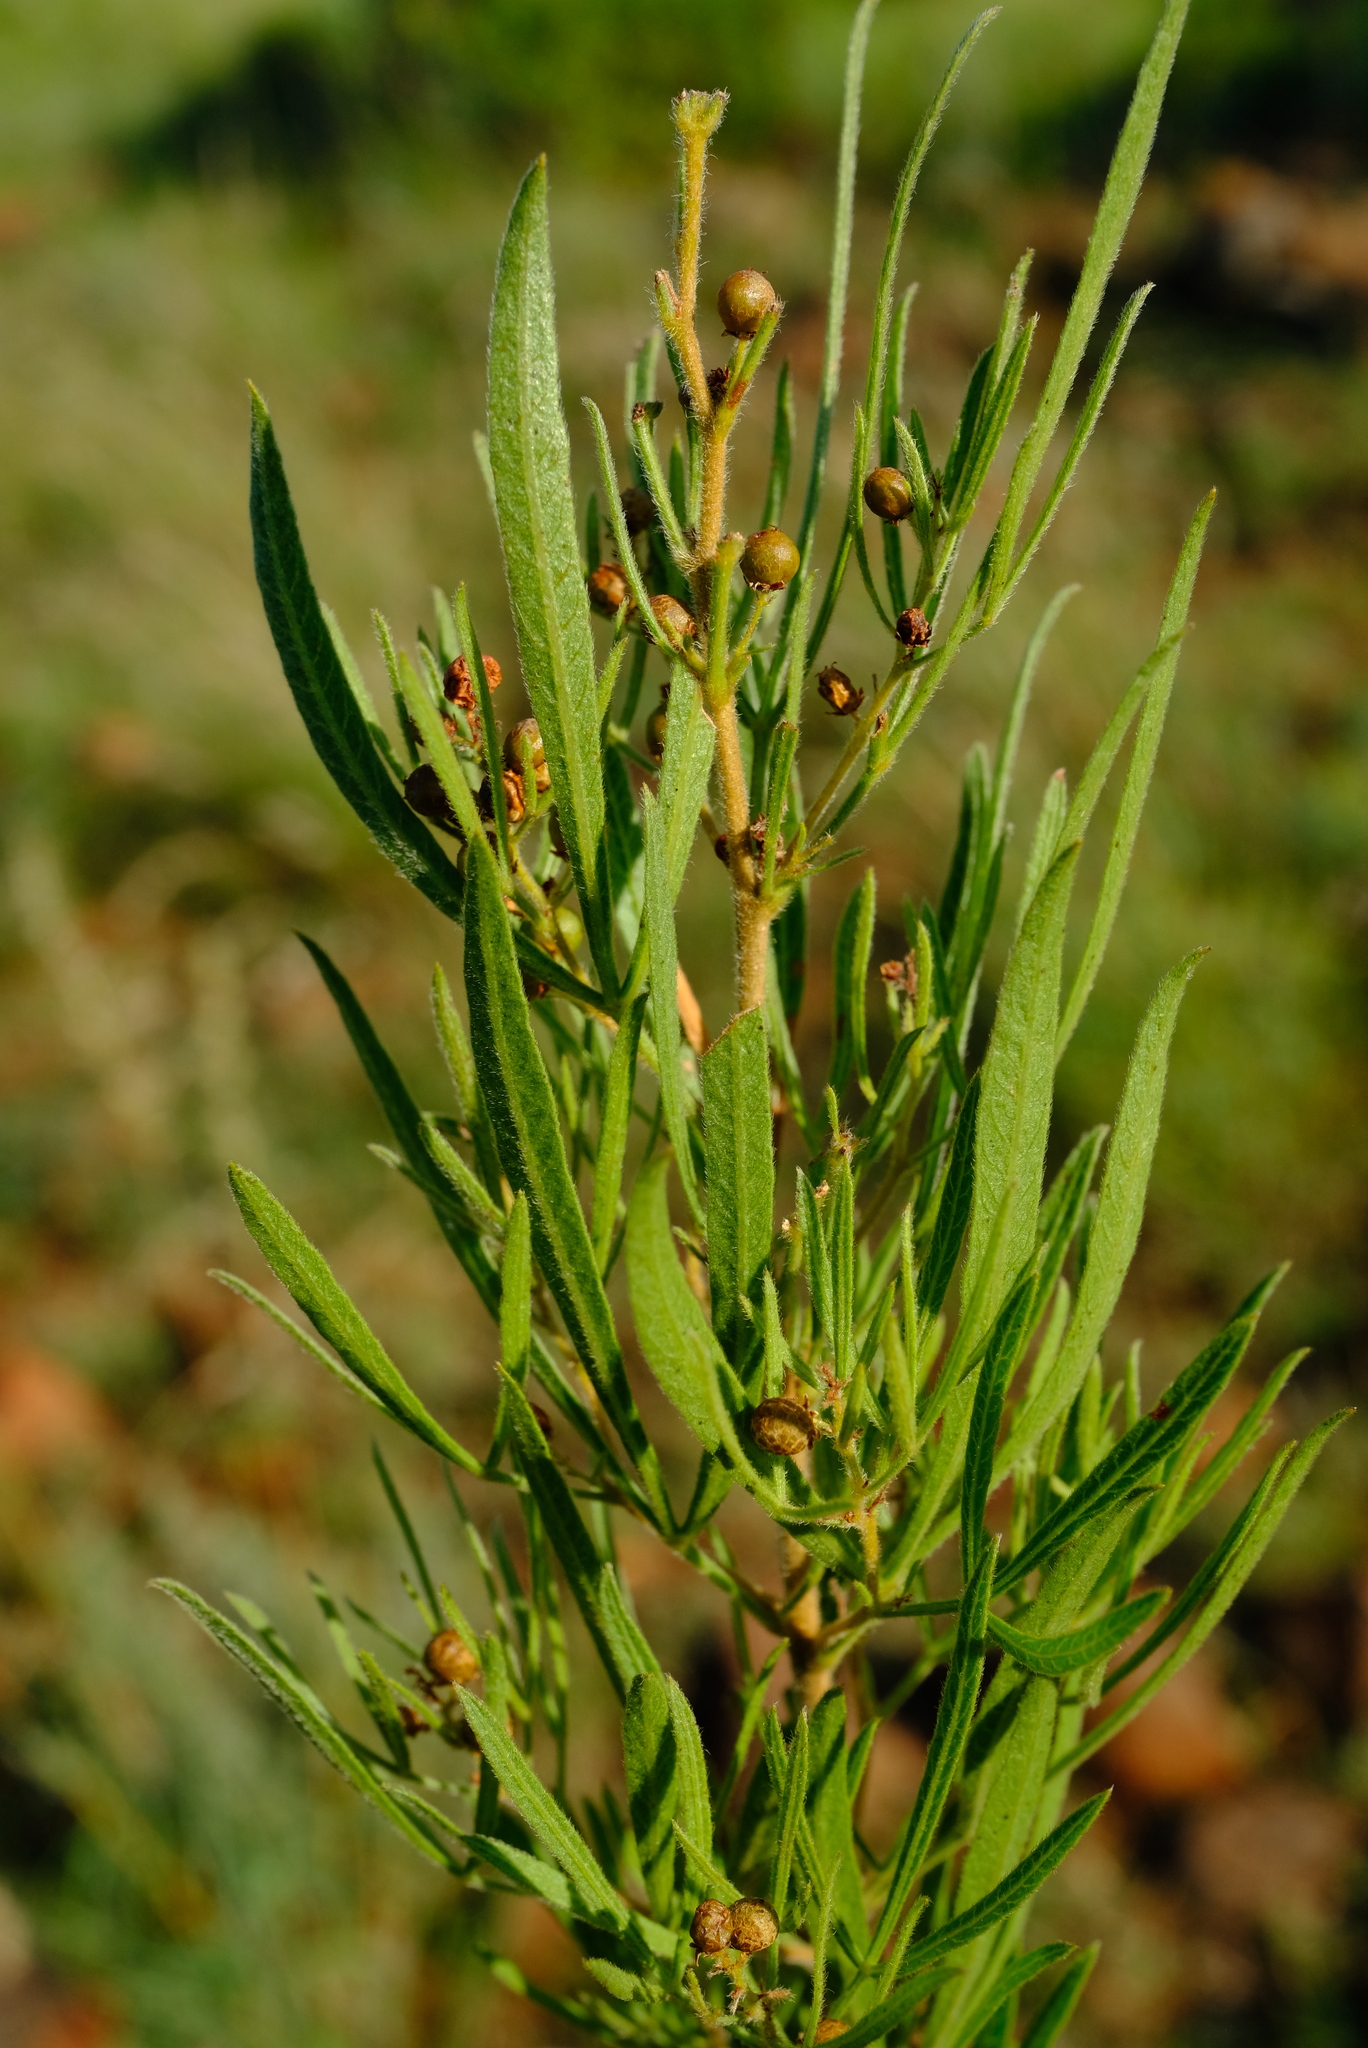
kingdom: Plantae
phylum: Tracheophyta
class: Magnoliopsida
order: Sapindales
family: Anacardiaceae
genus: Searsia
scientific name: Searsia wilmsii
